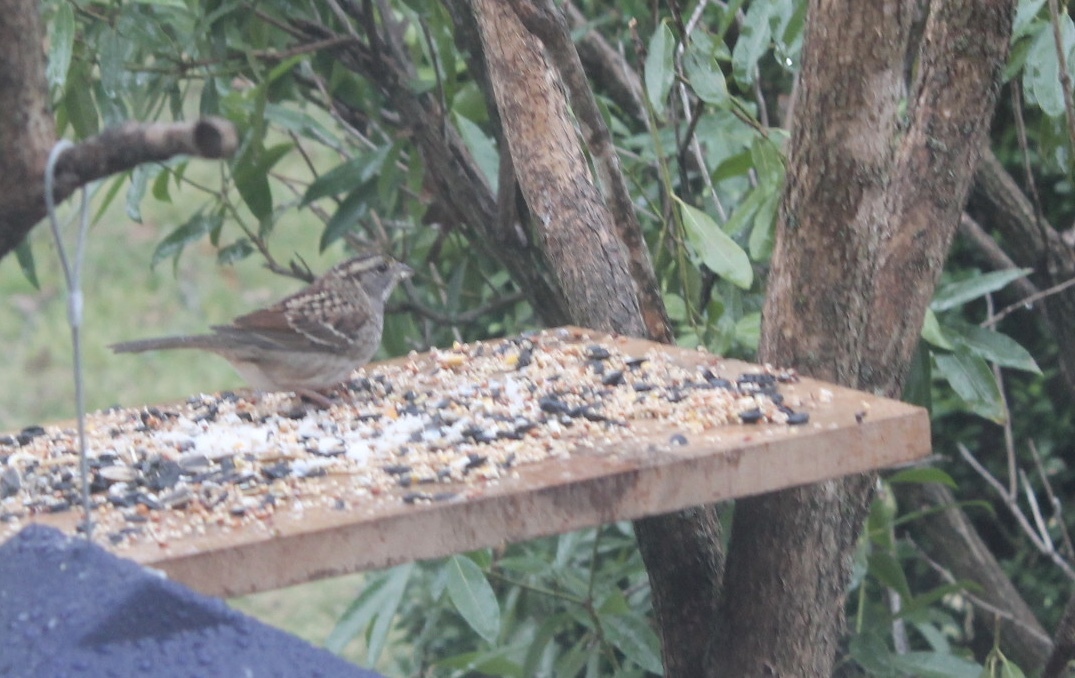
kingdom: Animalia
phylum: Chordata
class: Aves
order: Passeriformes
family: Passerellidae
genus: Zonotrichia
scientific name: Zonotrichia albicollis
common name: White-throated sparrow
